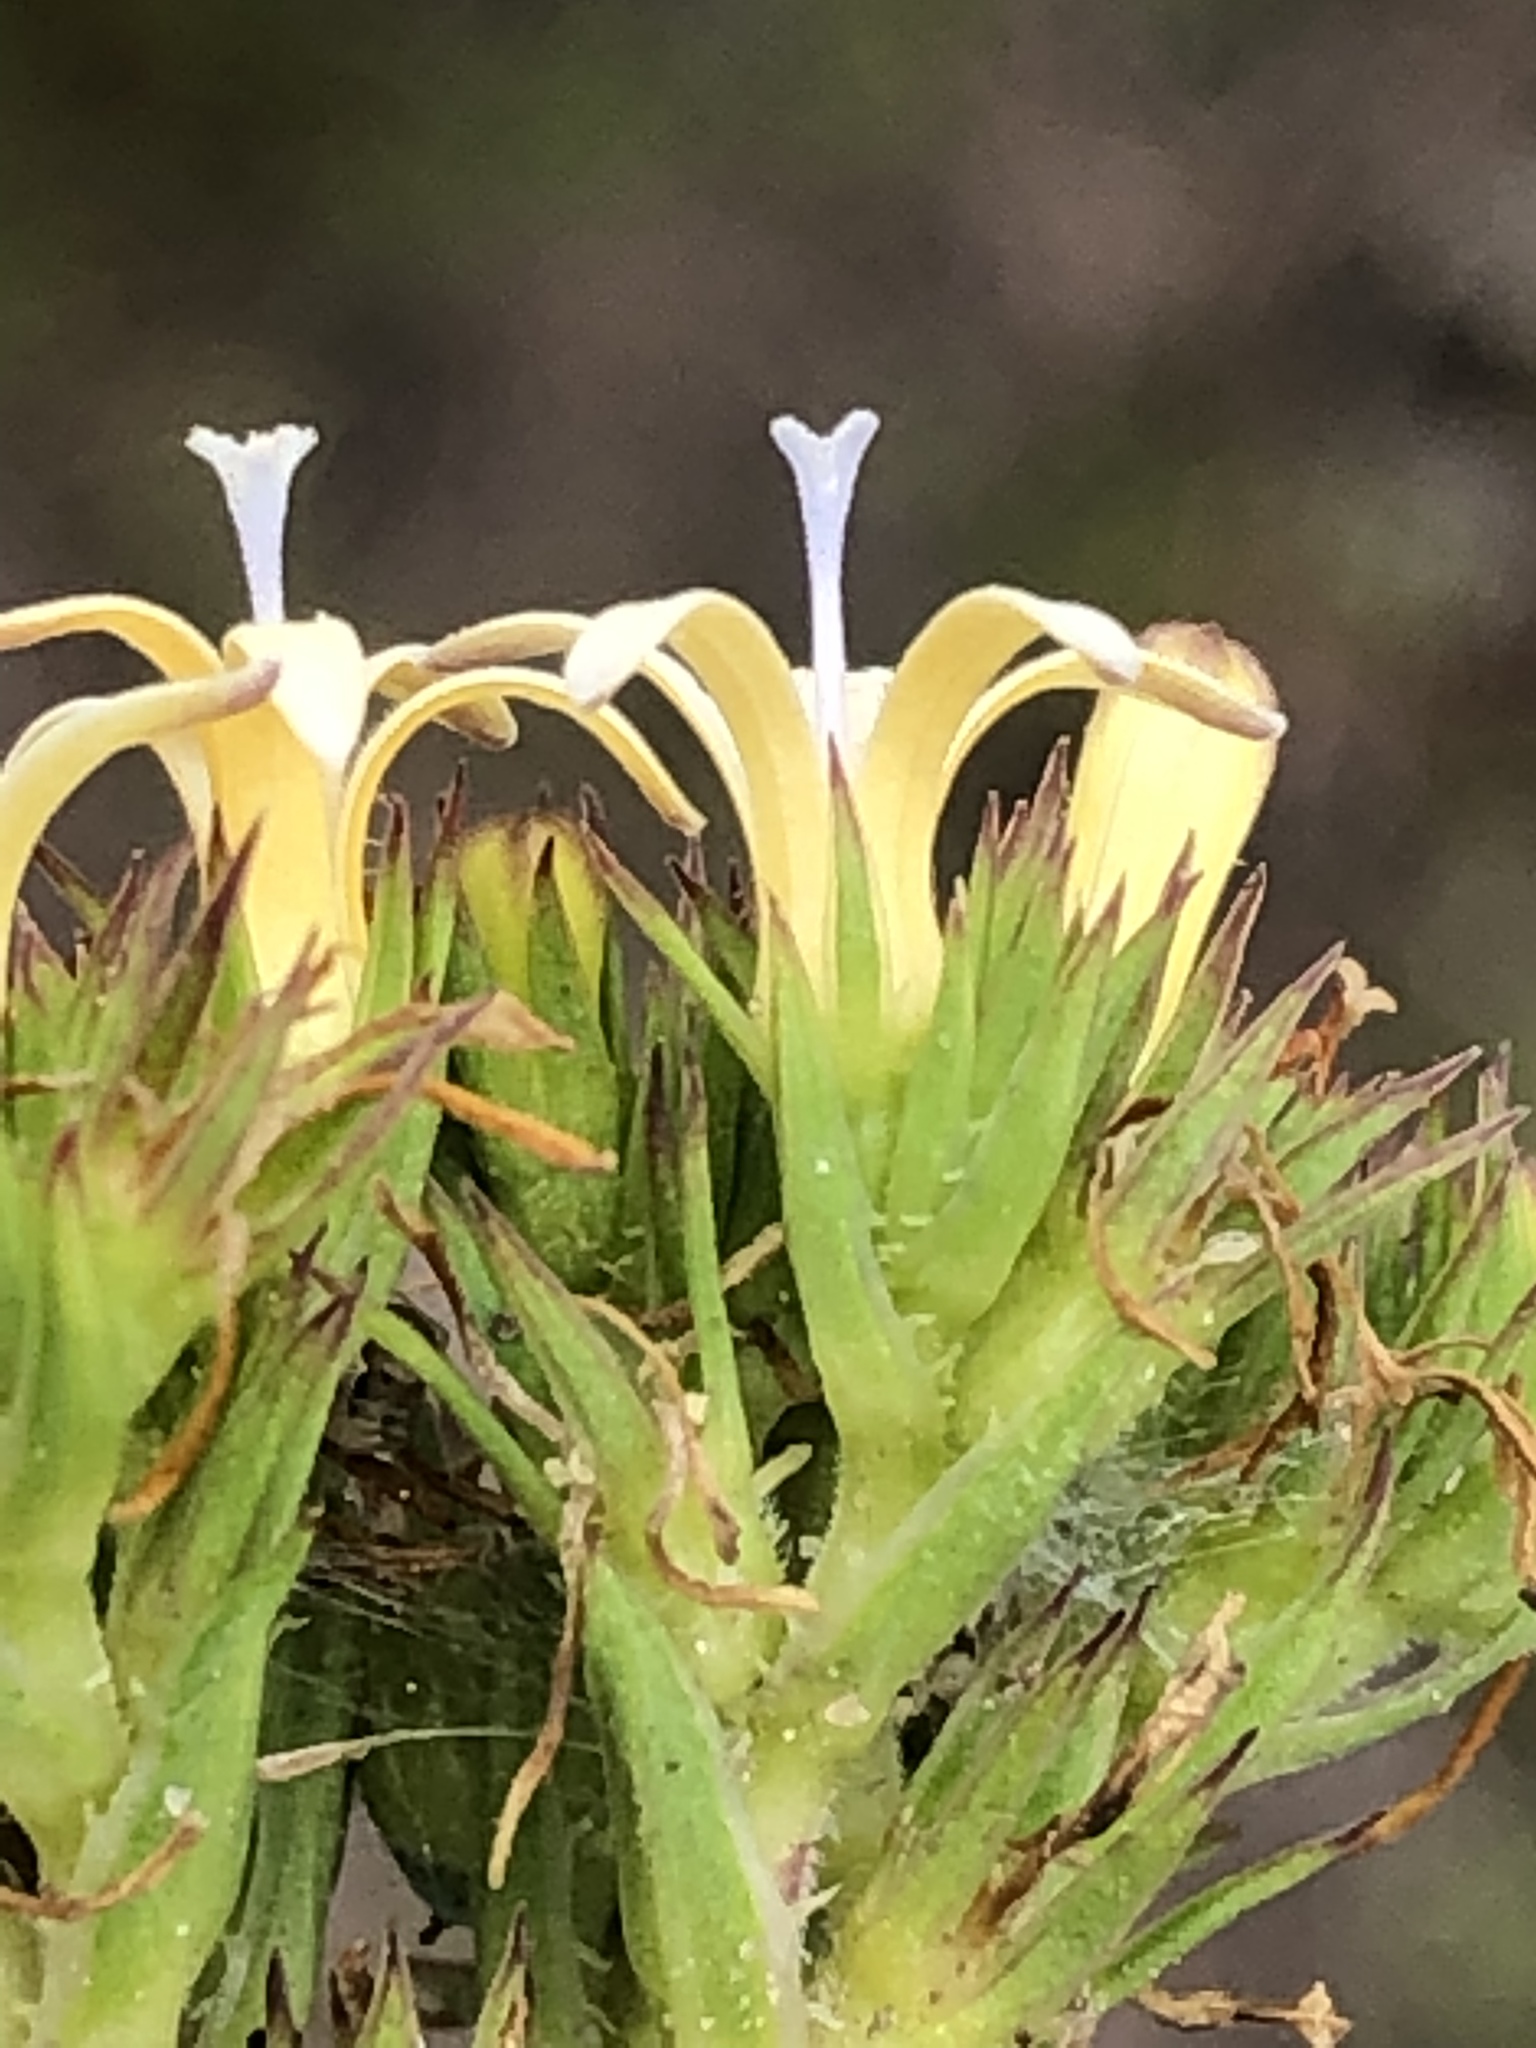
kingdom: Plantae
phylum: Tracheophyta
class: Magnoliopsida
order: Asterales
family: Campanulaceae
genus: Wahlenbergia
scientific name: Wahlenbergia desmantha
